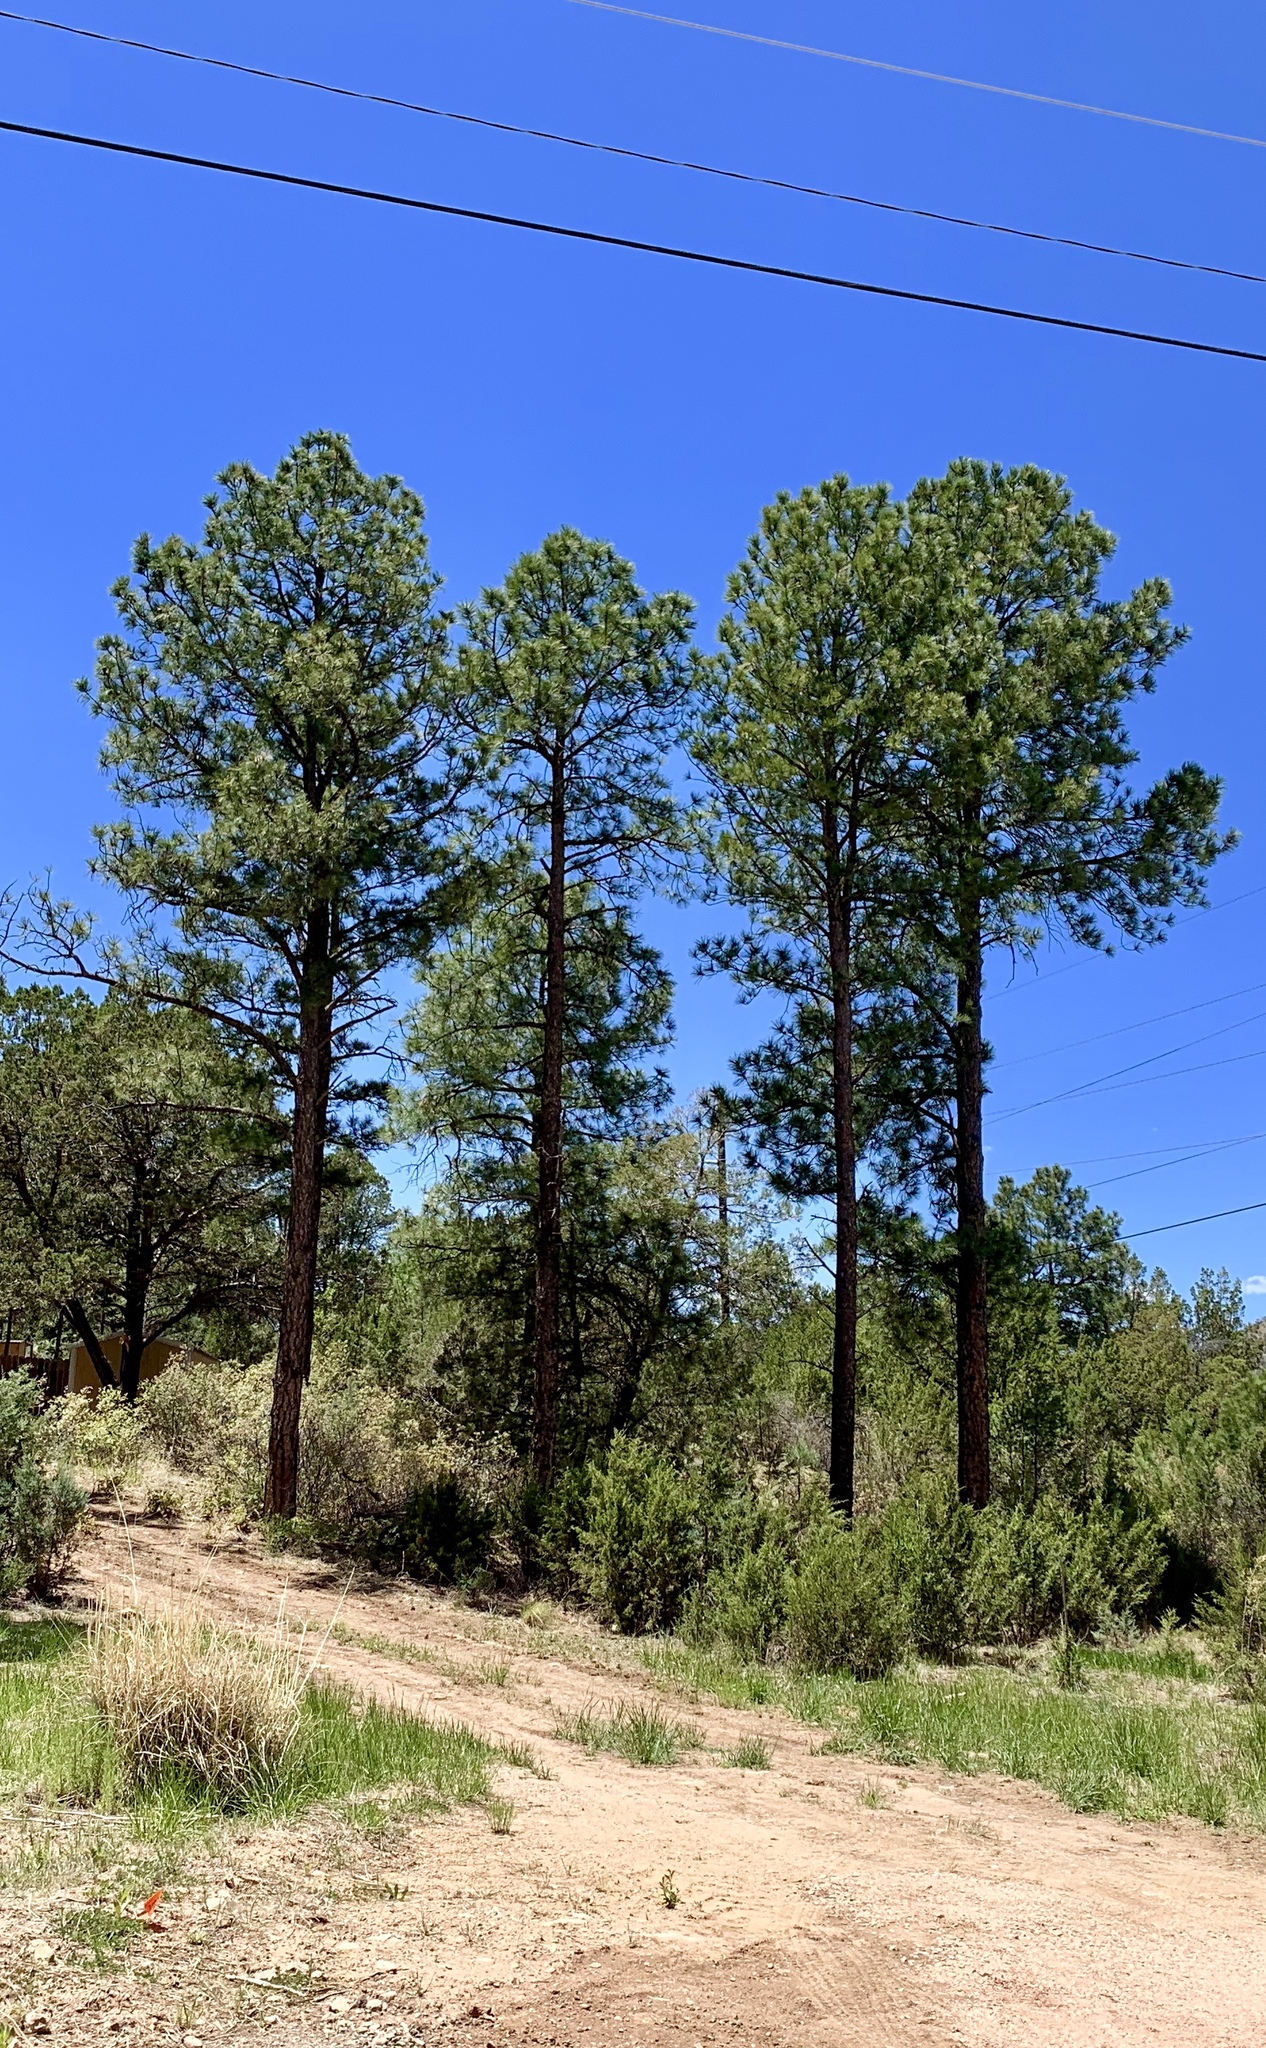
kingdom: Plantae
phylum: Tracheophyta
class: Pinopsida
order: Pinales
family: Pinaceae
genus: Pinus
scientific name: Pinus ponderosa
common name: Western yellow-pine
